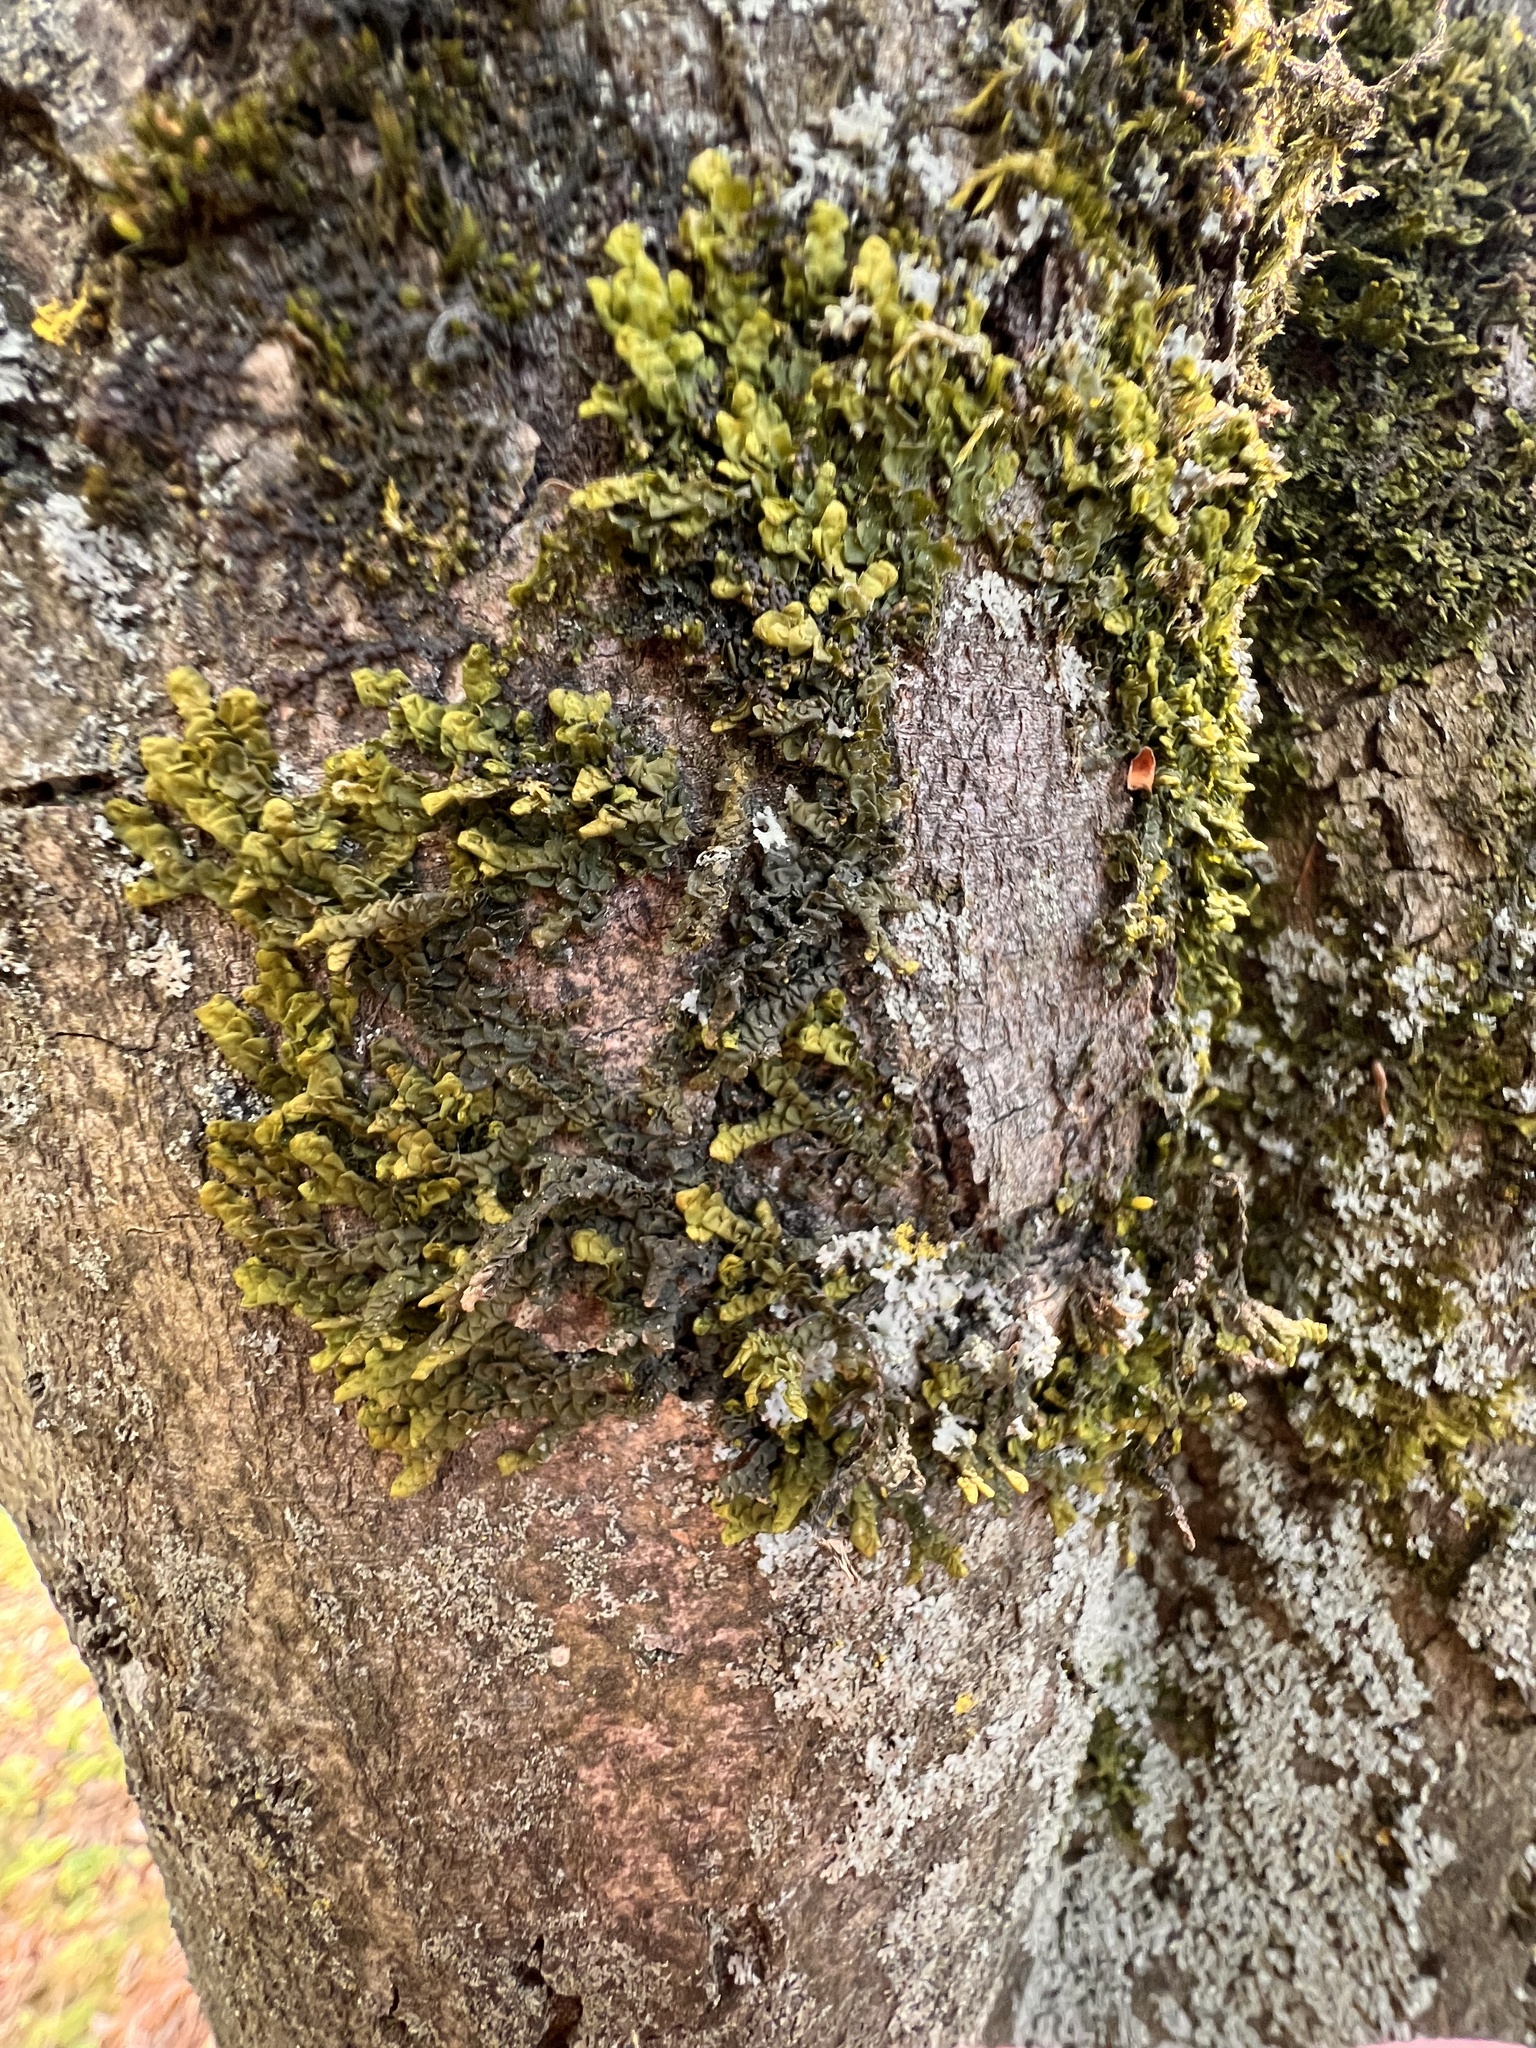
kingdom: Plantae
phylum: Marchantiophyta
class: Jungermanniopsida
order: Porellales
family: Porellaceae
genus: Porella
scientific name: Porella platyphylla
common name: Wall scalewort
